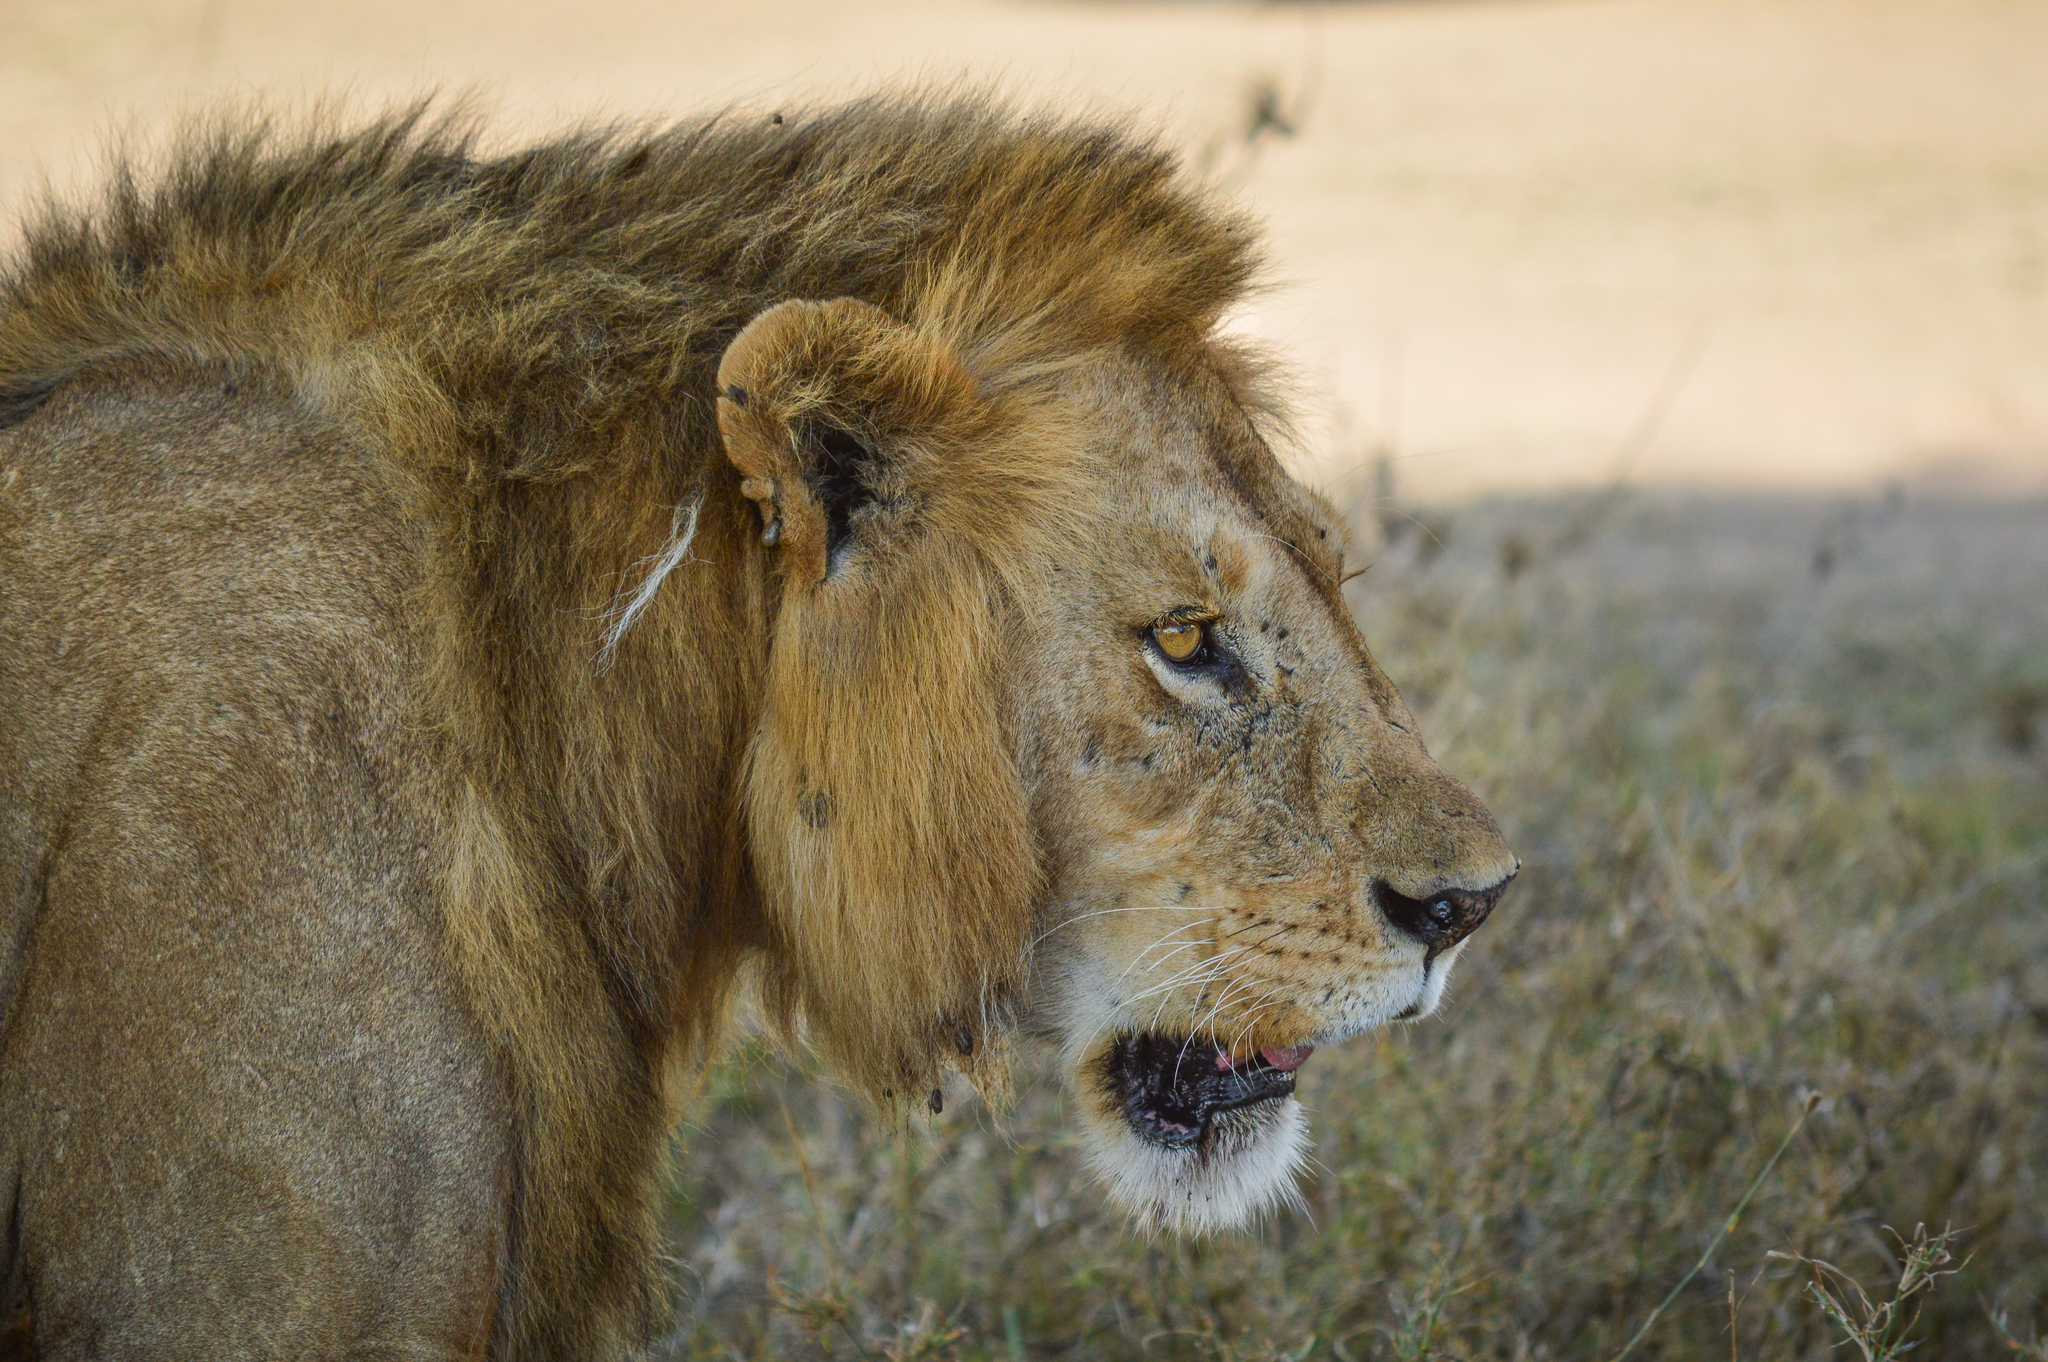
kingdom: Animalia
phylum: Chordata
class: Mammalia
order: Carnivora
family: Felidae
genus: Panthera
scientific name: Panthera leo
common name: Lion
